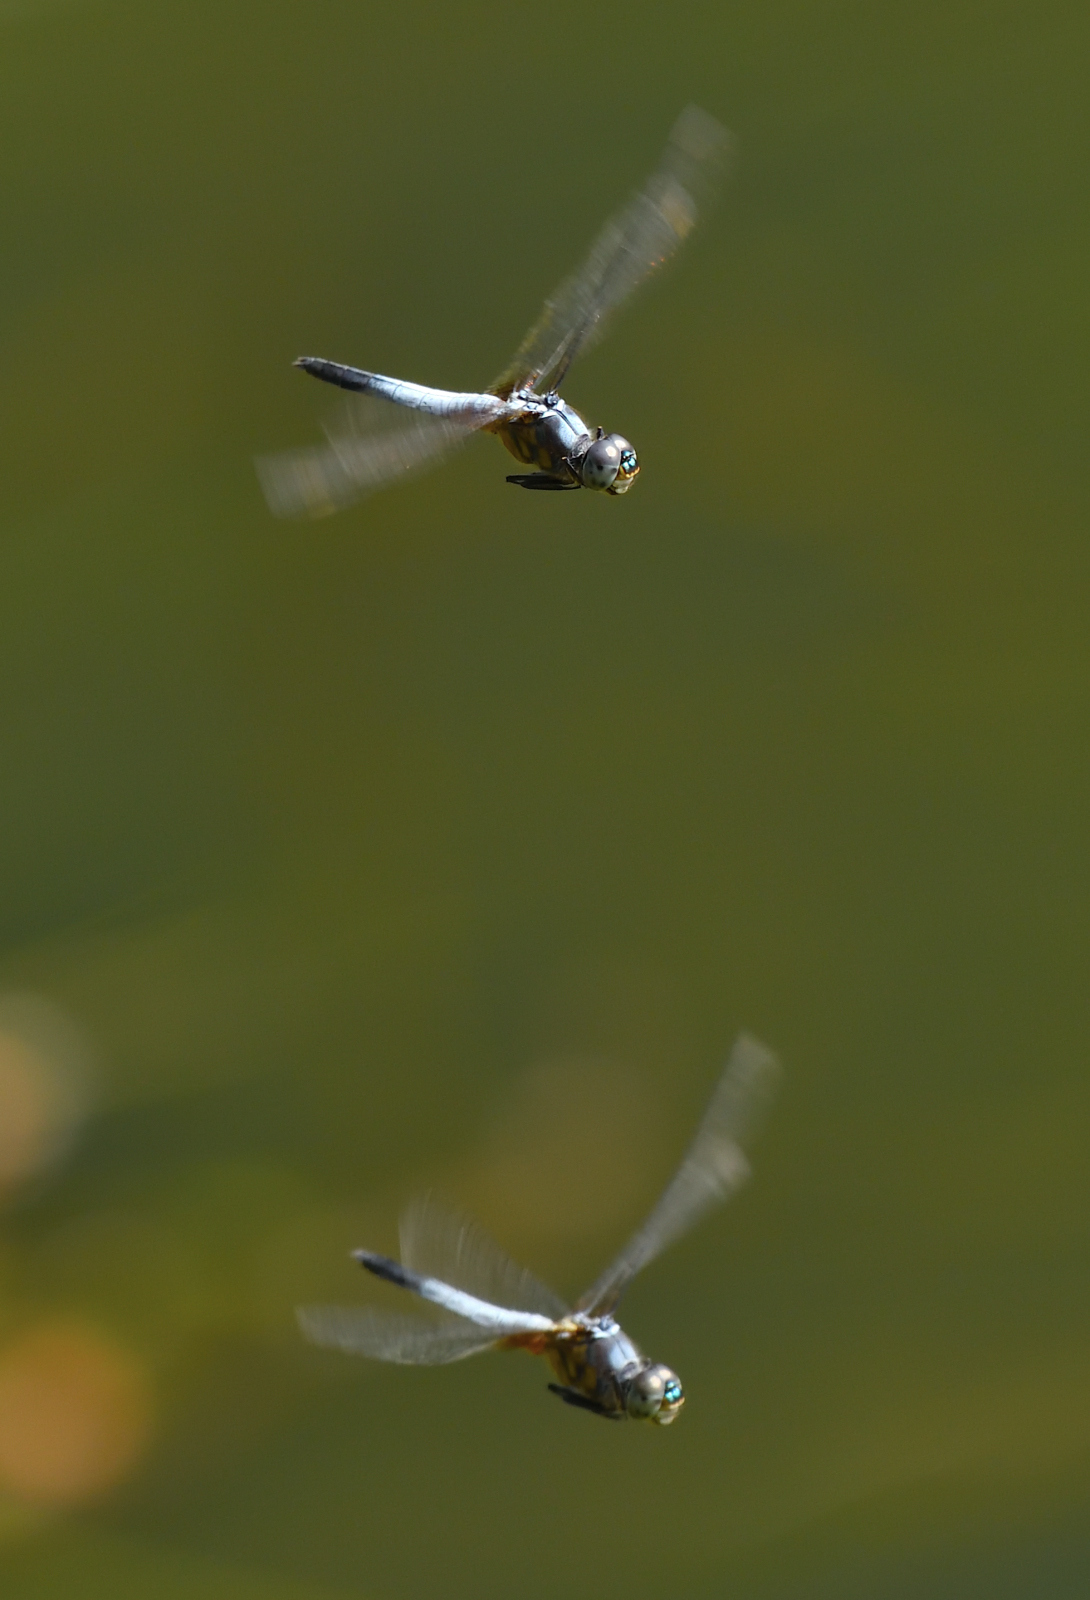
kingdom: Animalia
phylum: Arthropoda
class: Insecta
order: Odonata
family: Libellulidae
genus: Brachydiplax
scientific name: Brachydiplax chalybea
